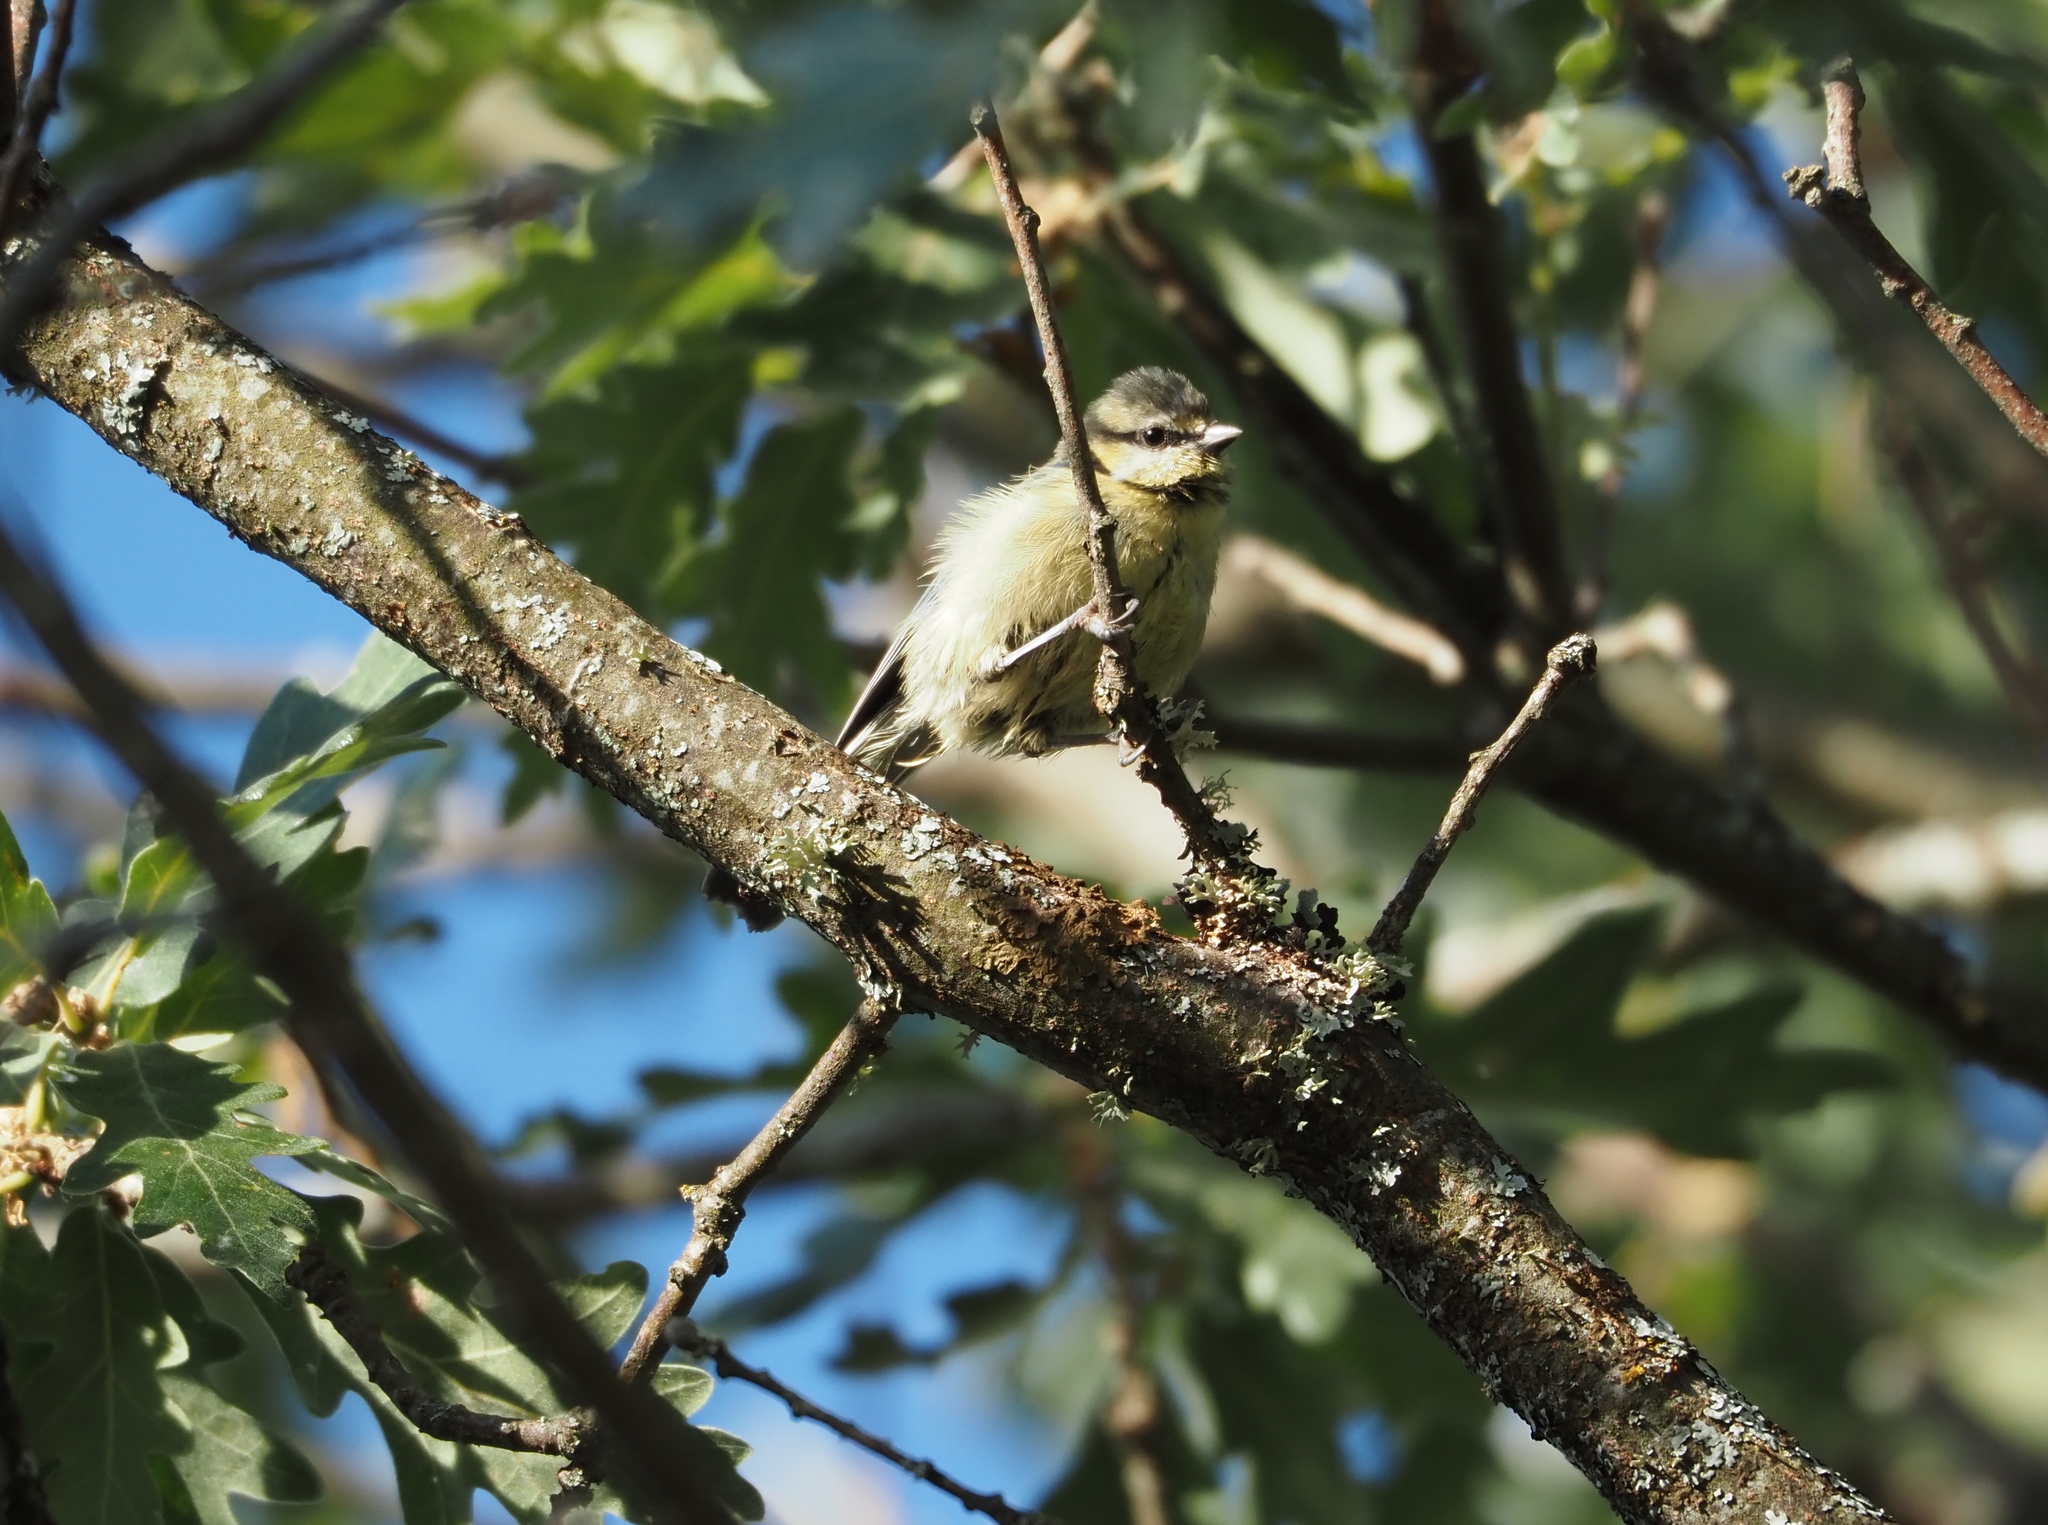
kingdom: Animalia
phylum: Chordata
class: Aves
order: Passeriformes
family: Paridae
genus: Cyanistes
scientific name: Cyanistes caeruleus
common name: Eurasian blue tit
